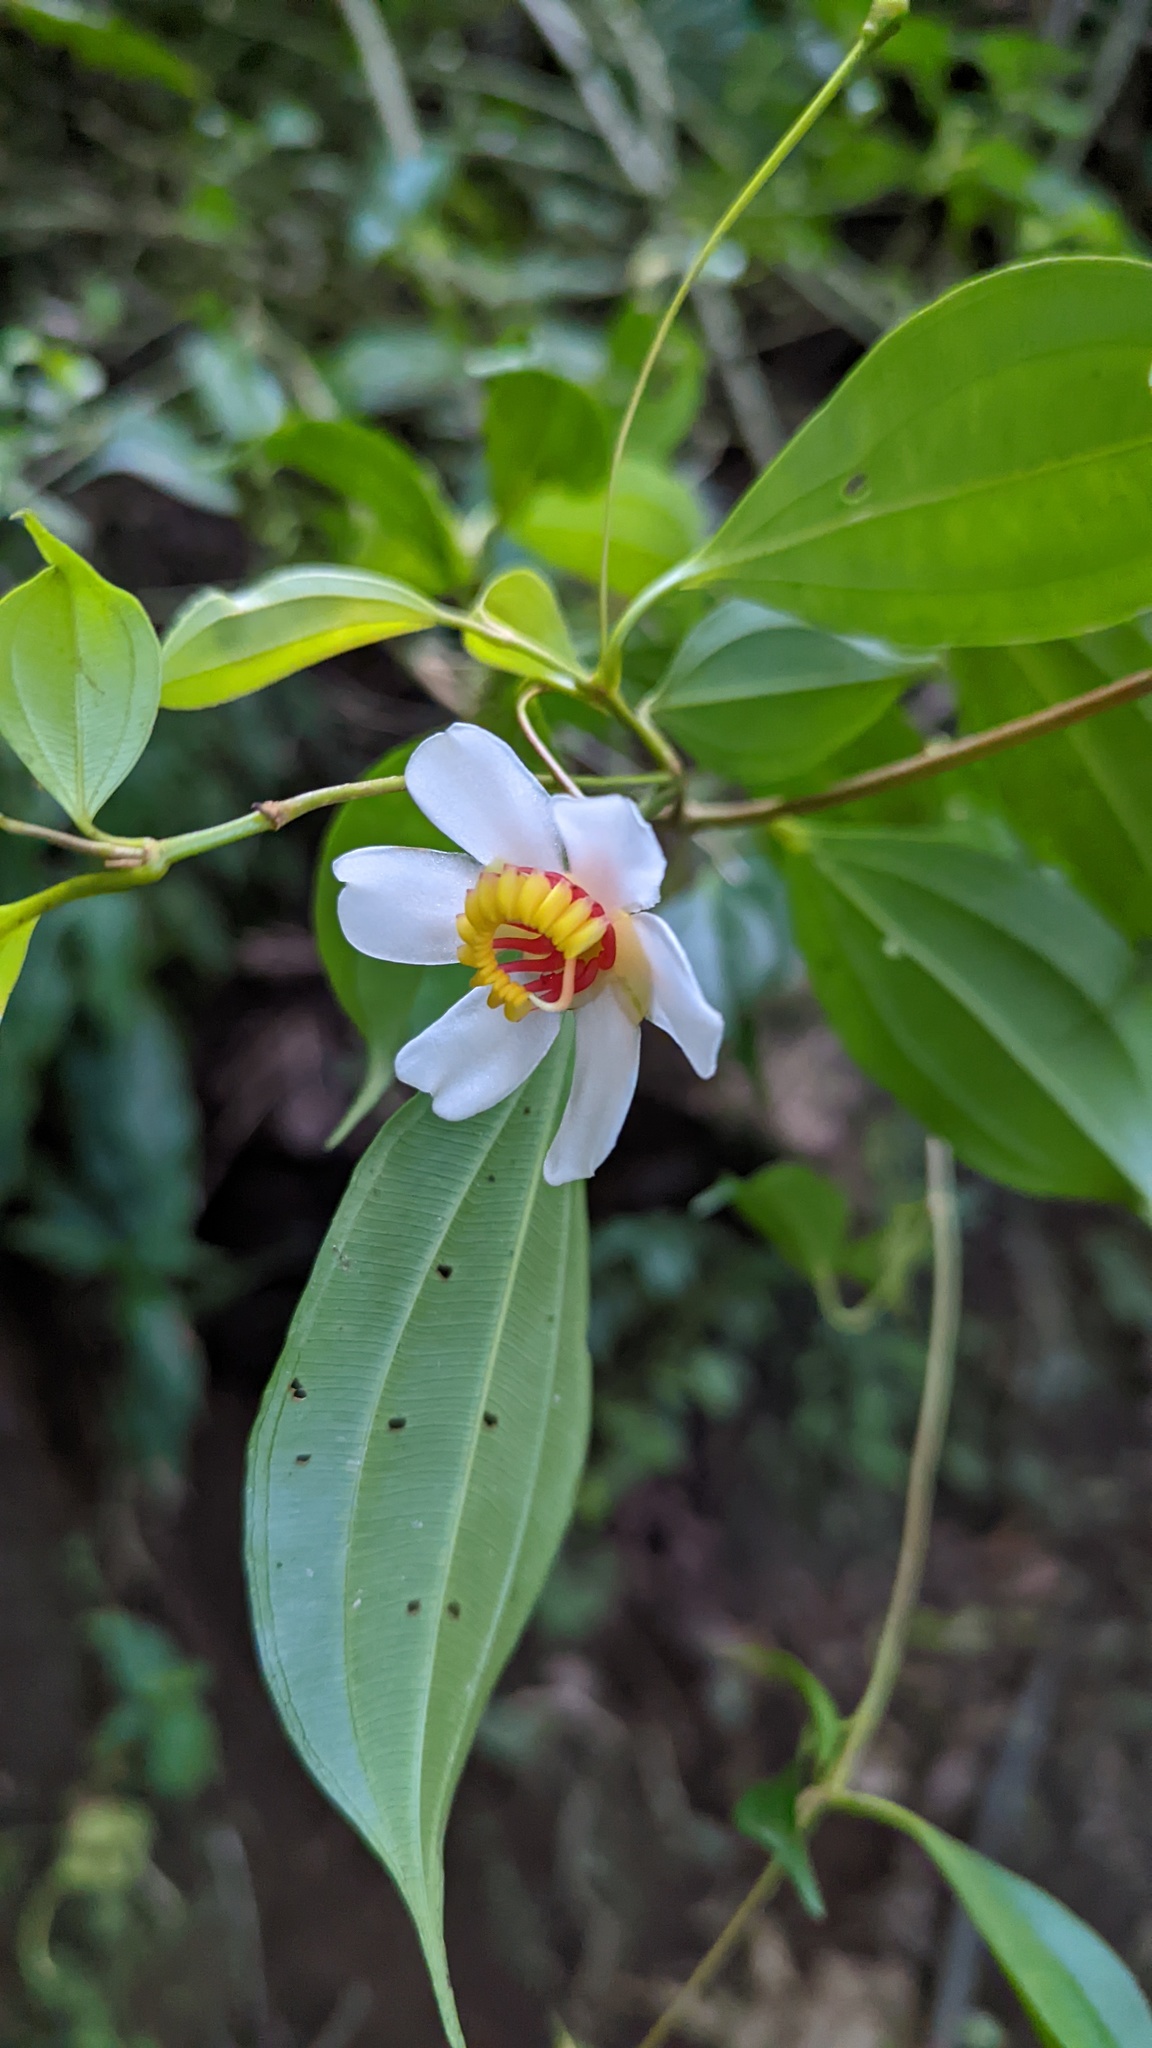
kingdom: Plantae
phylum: Tracheophyta
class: Magnoliopsida
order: Myrtales
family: Melastomataceae
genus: Blakea
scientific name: Blakea anomala
